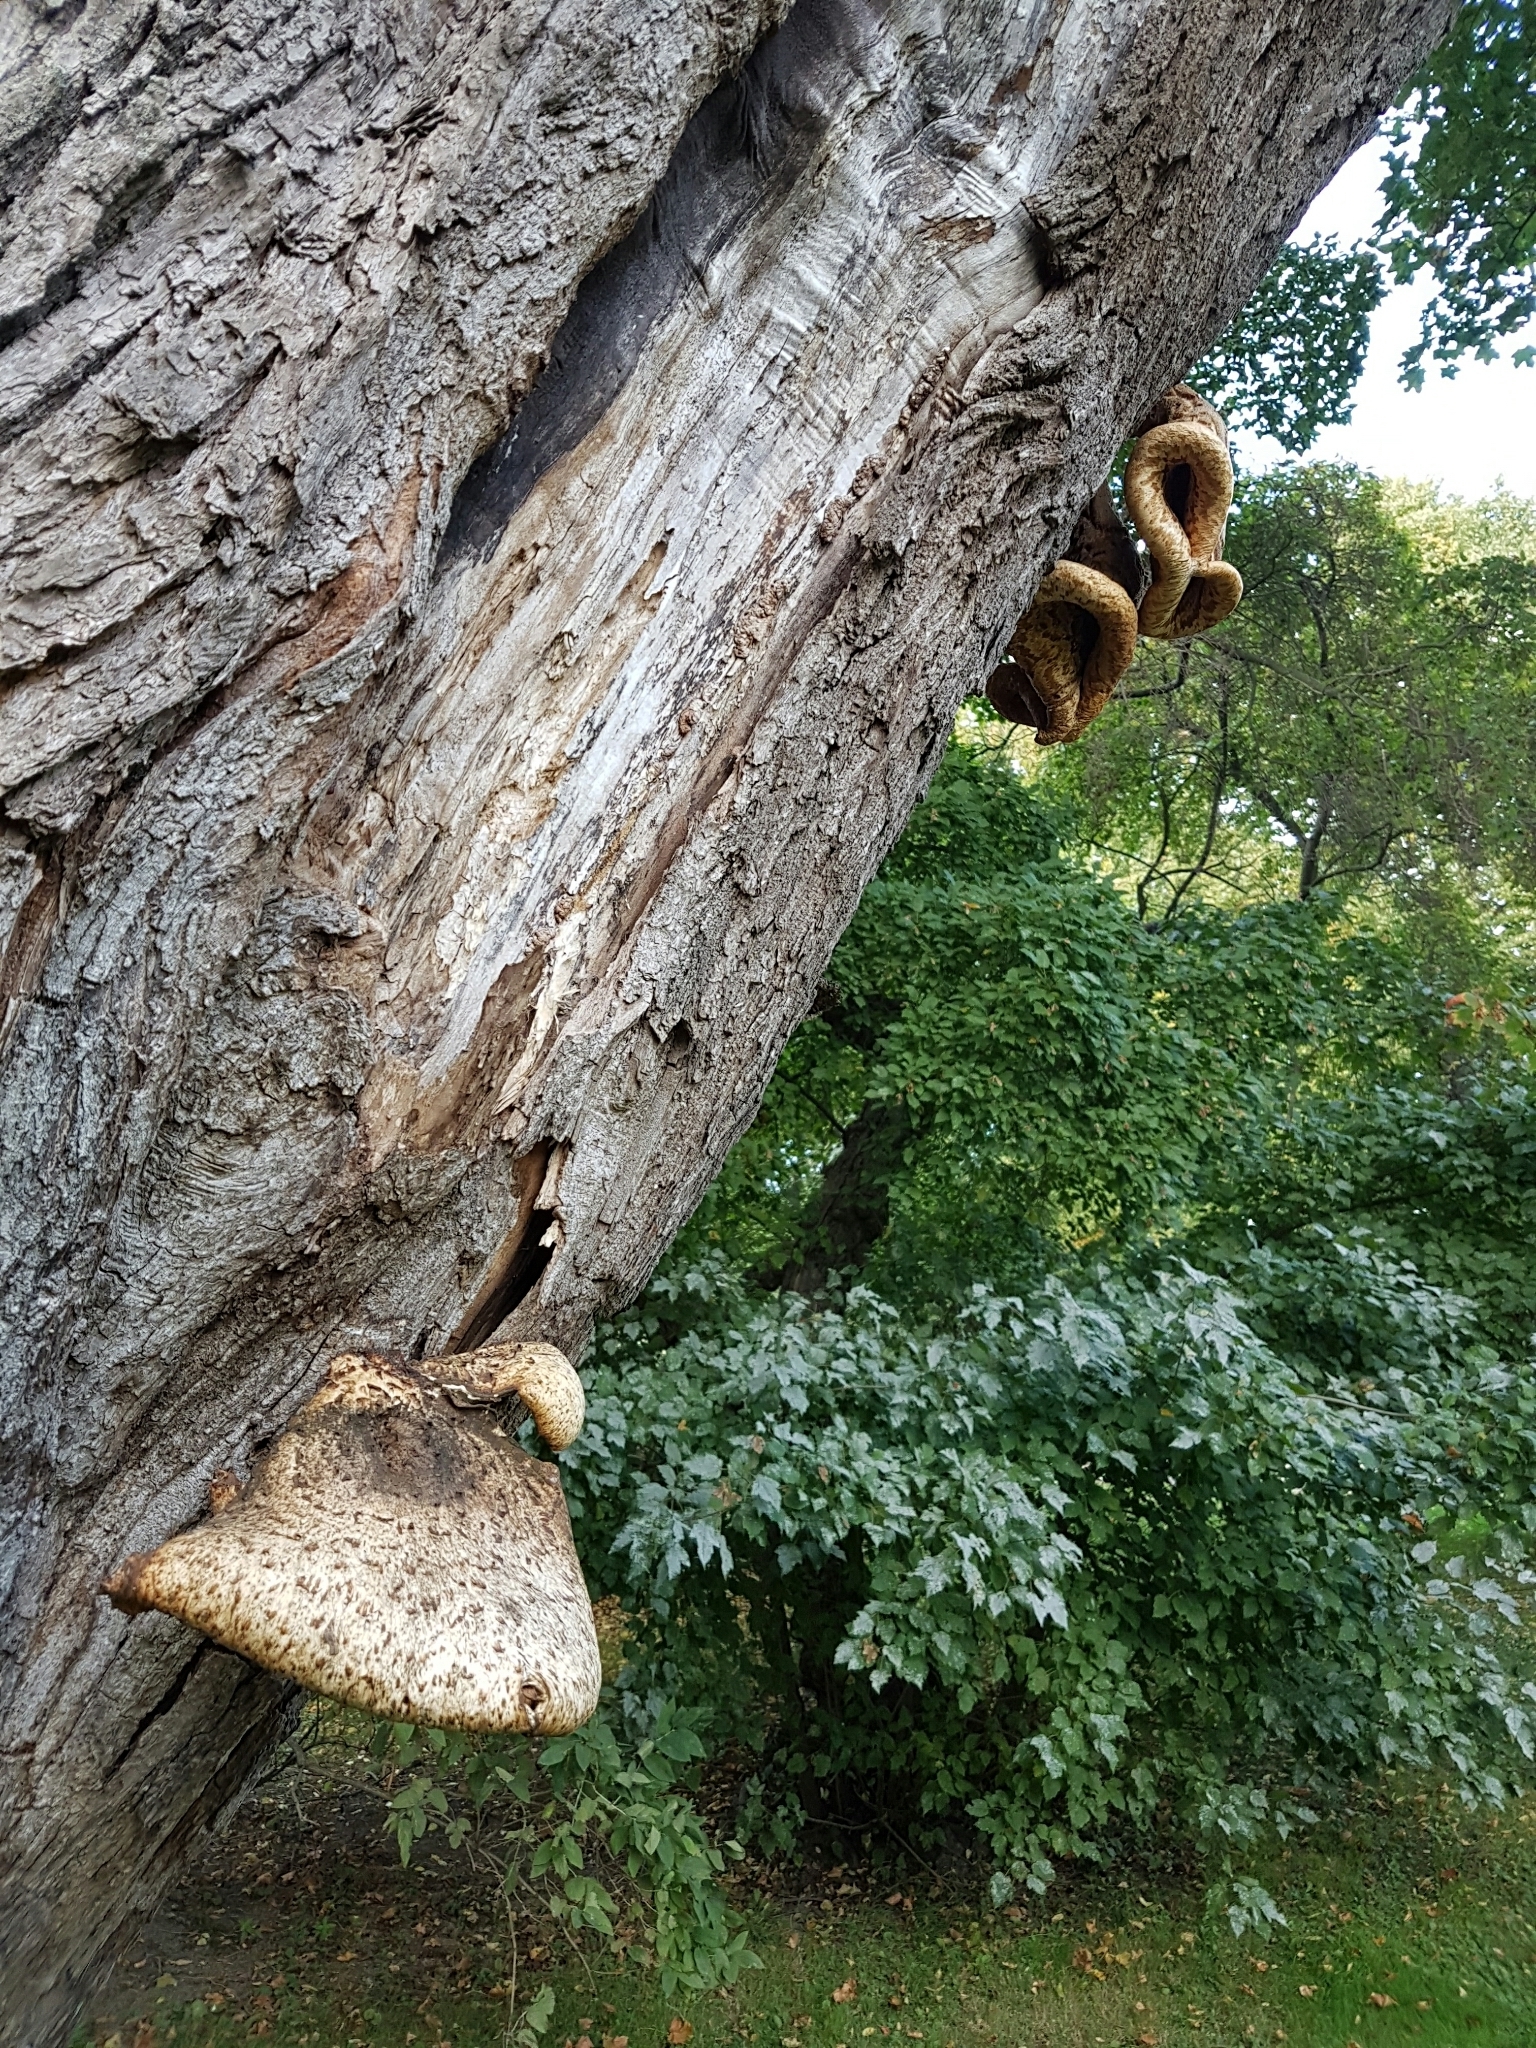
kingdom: Fungi
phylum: Basidiomycota
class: Agaricomycetes
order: Polyporales
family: Polyporaceae
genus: Cerioporus
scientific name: Cerioporus squamosus
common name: Dryad's saddle
